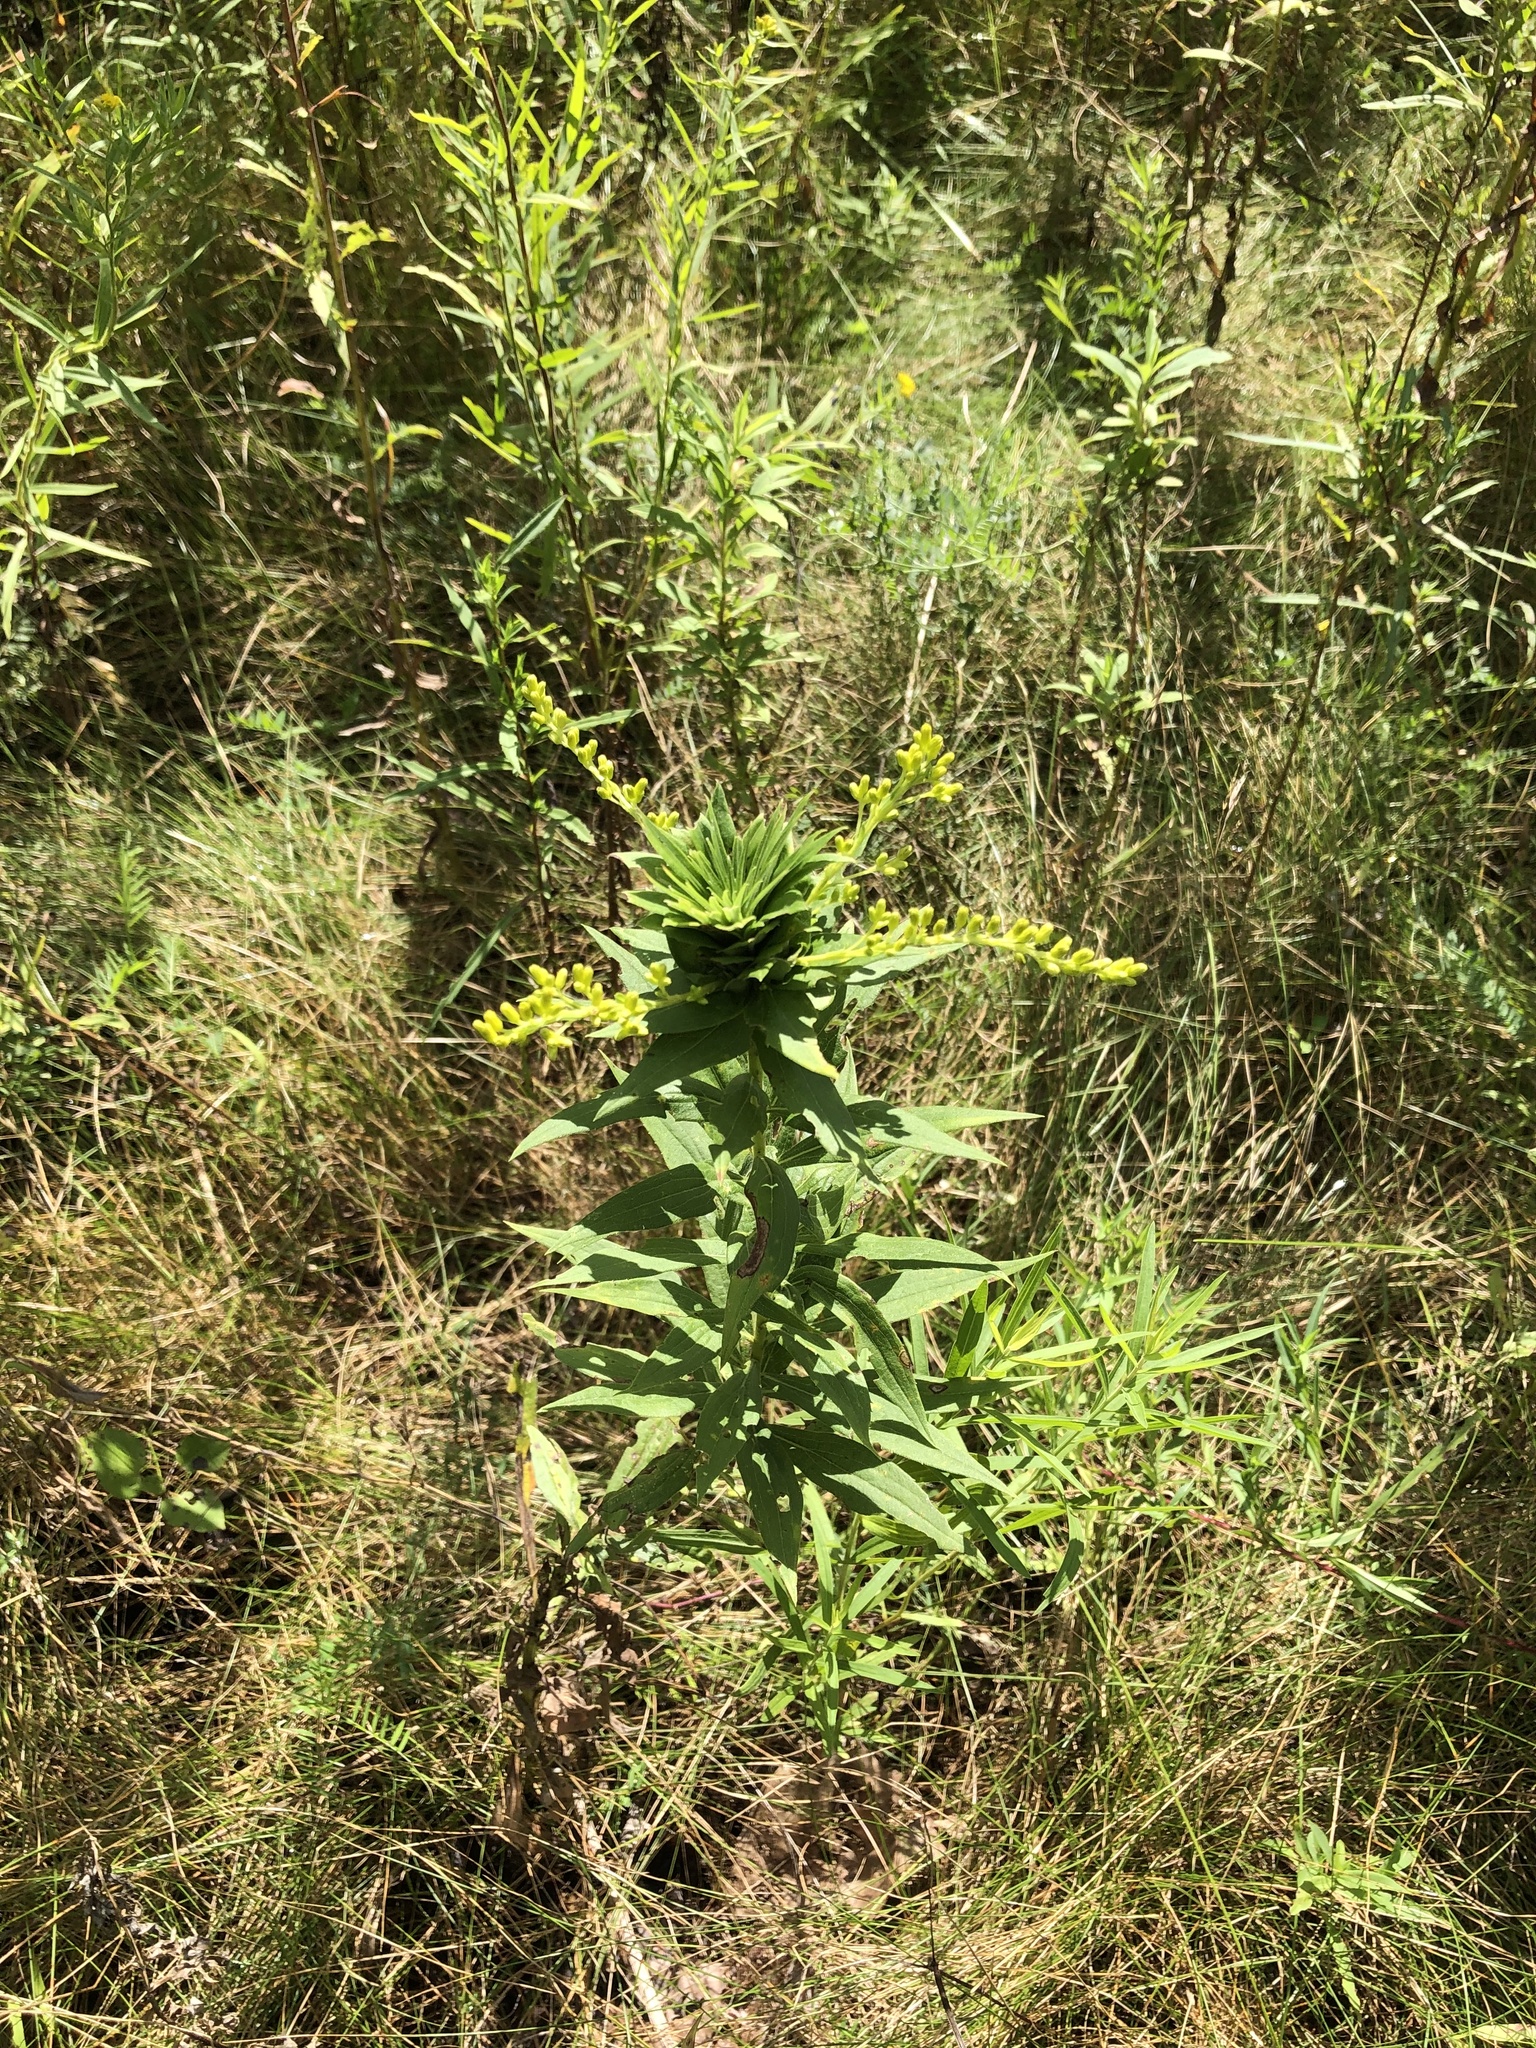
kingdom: Animalia
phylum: Arthropoda
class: Insecta
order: Diptera
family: Cecidomyiidae
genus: Rhopalomyia
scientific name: Rhopalomyia solidaginis
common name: Goldenrod bunch gall midge
